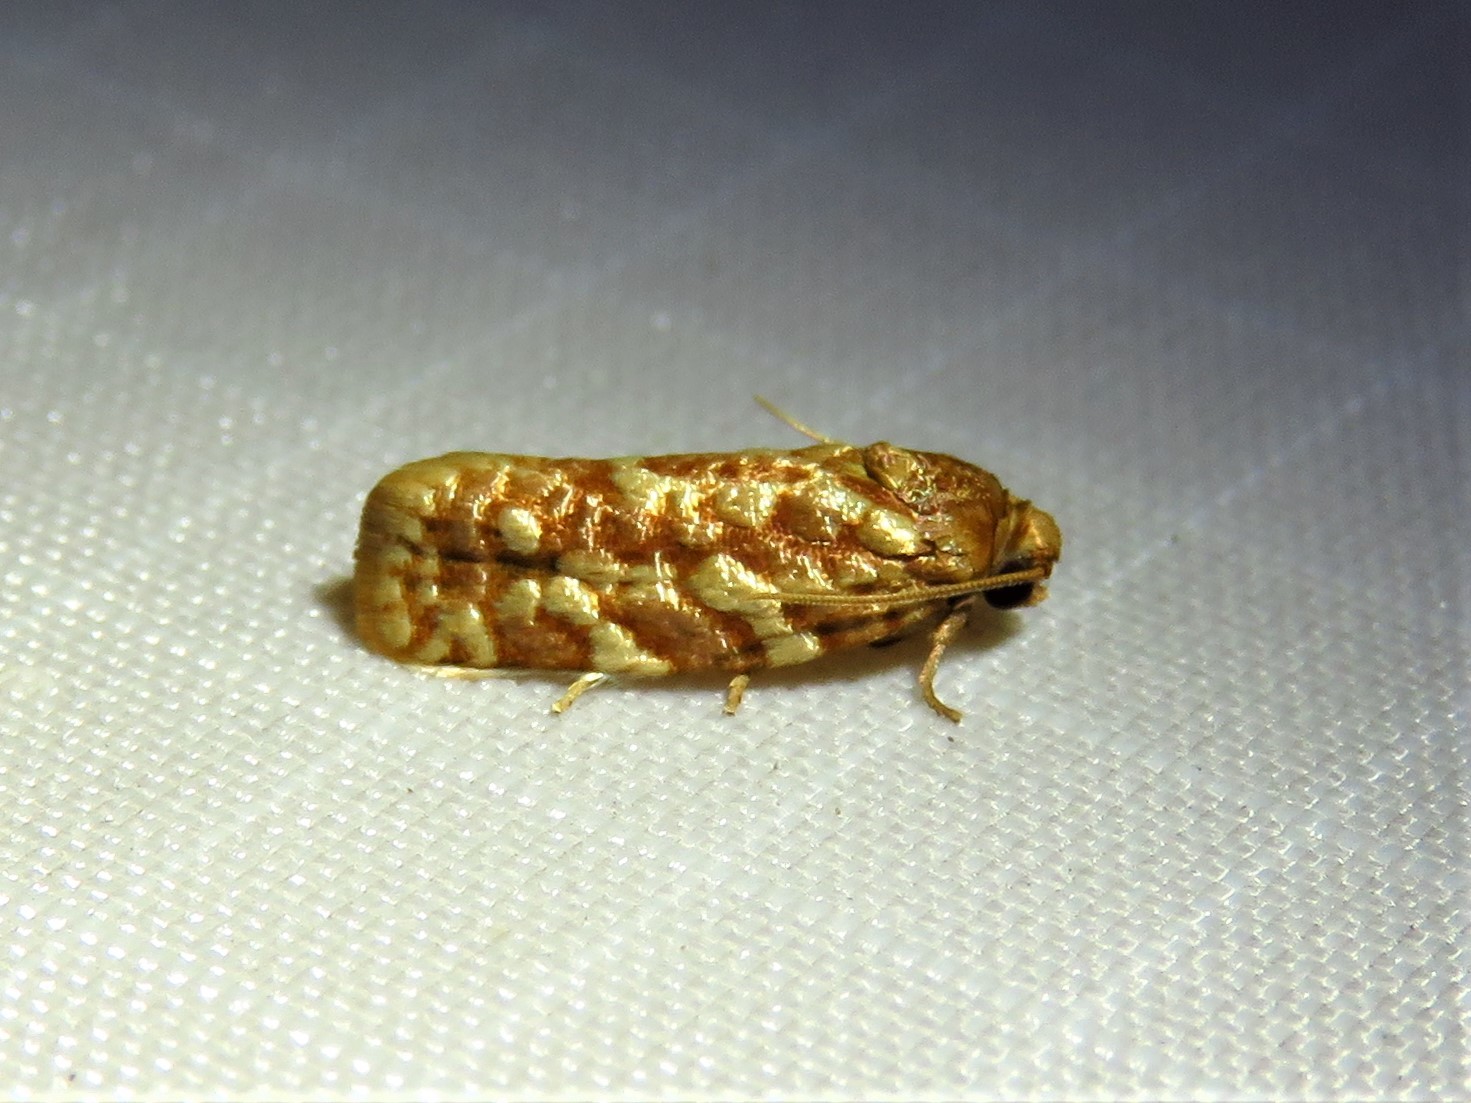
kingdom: Animalia
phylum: Arthropoda
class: Insecta
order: Lepidoptera
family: Tortricidae
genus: Choristoneura
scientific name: Choristoneura houstonana
